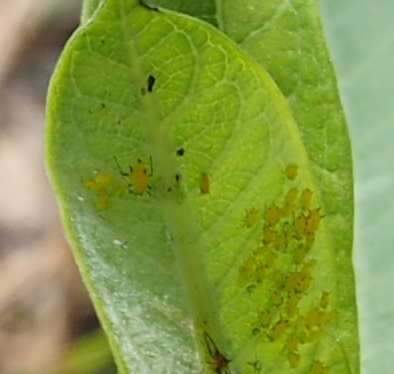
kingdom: Animalia
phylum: Arthropoda
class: Insecta
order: Hemiptera
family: Aphididae
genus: Aphis
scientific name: Aphis nerii
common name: Oleander aphid
